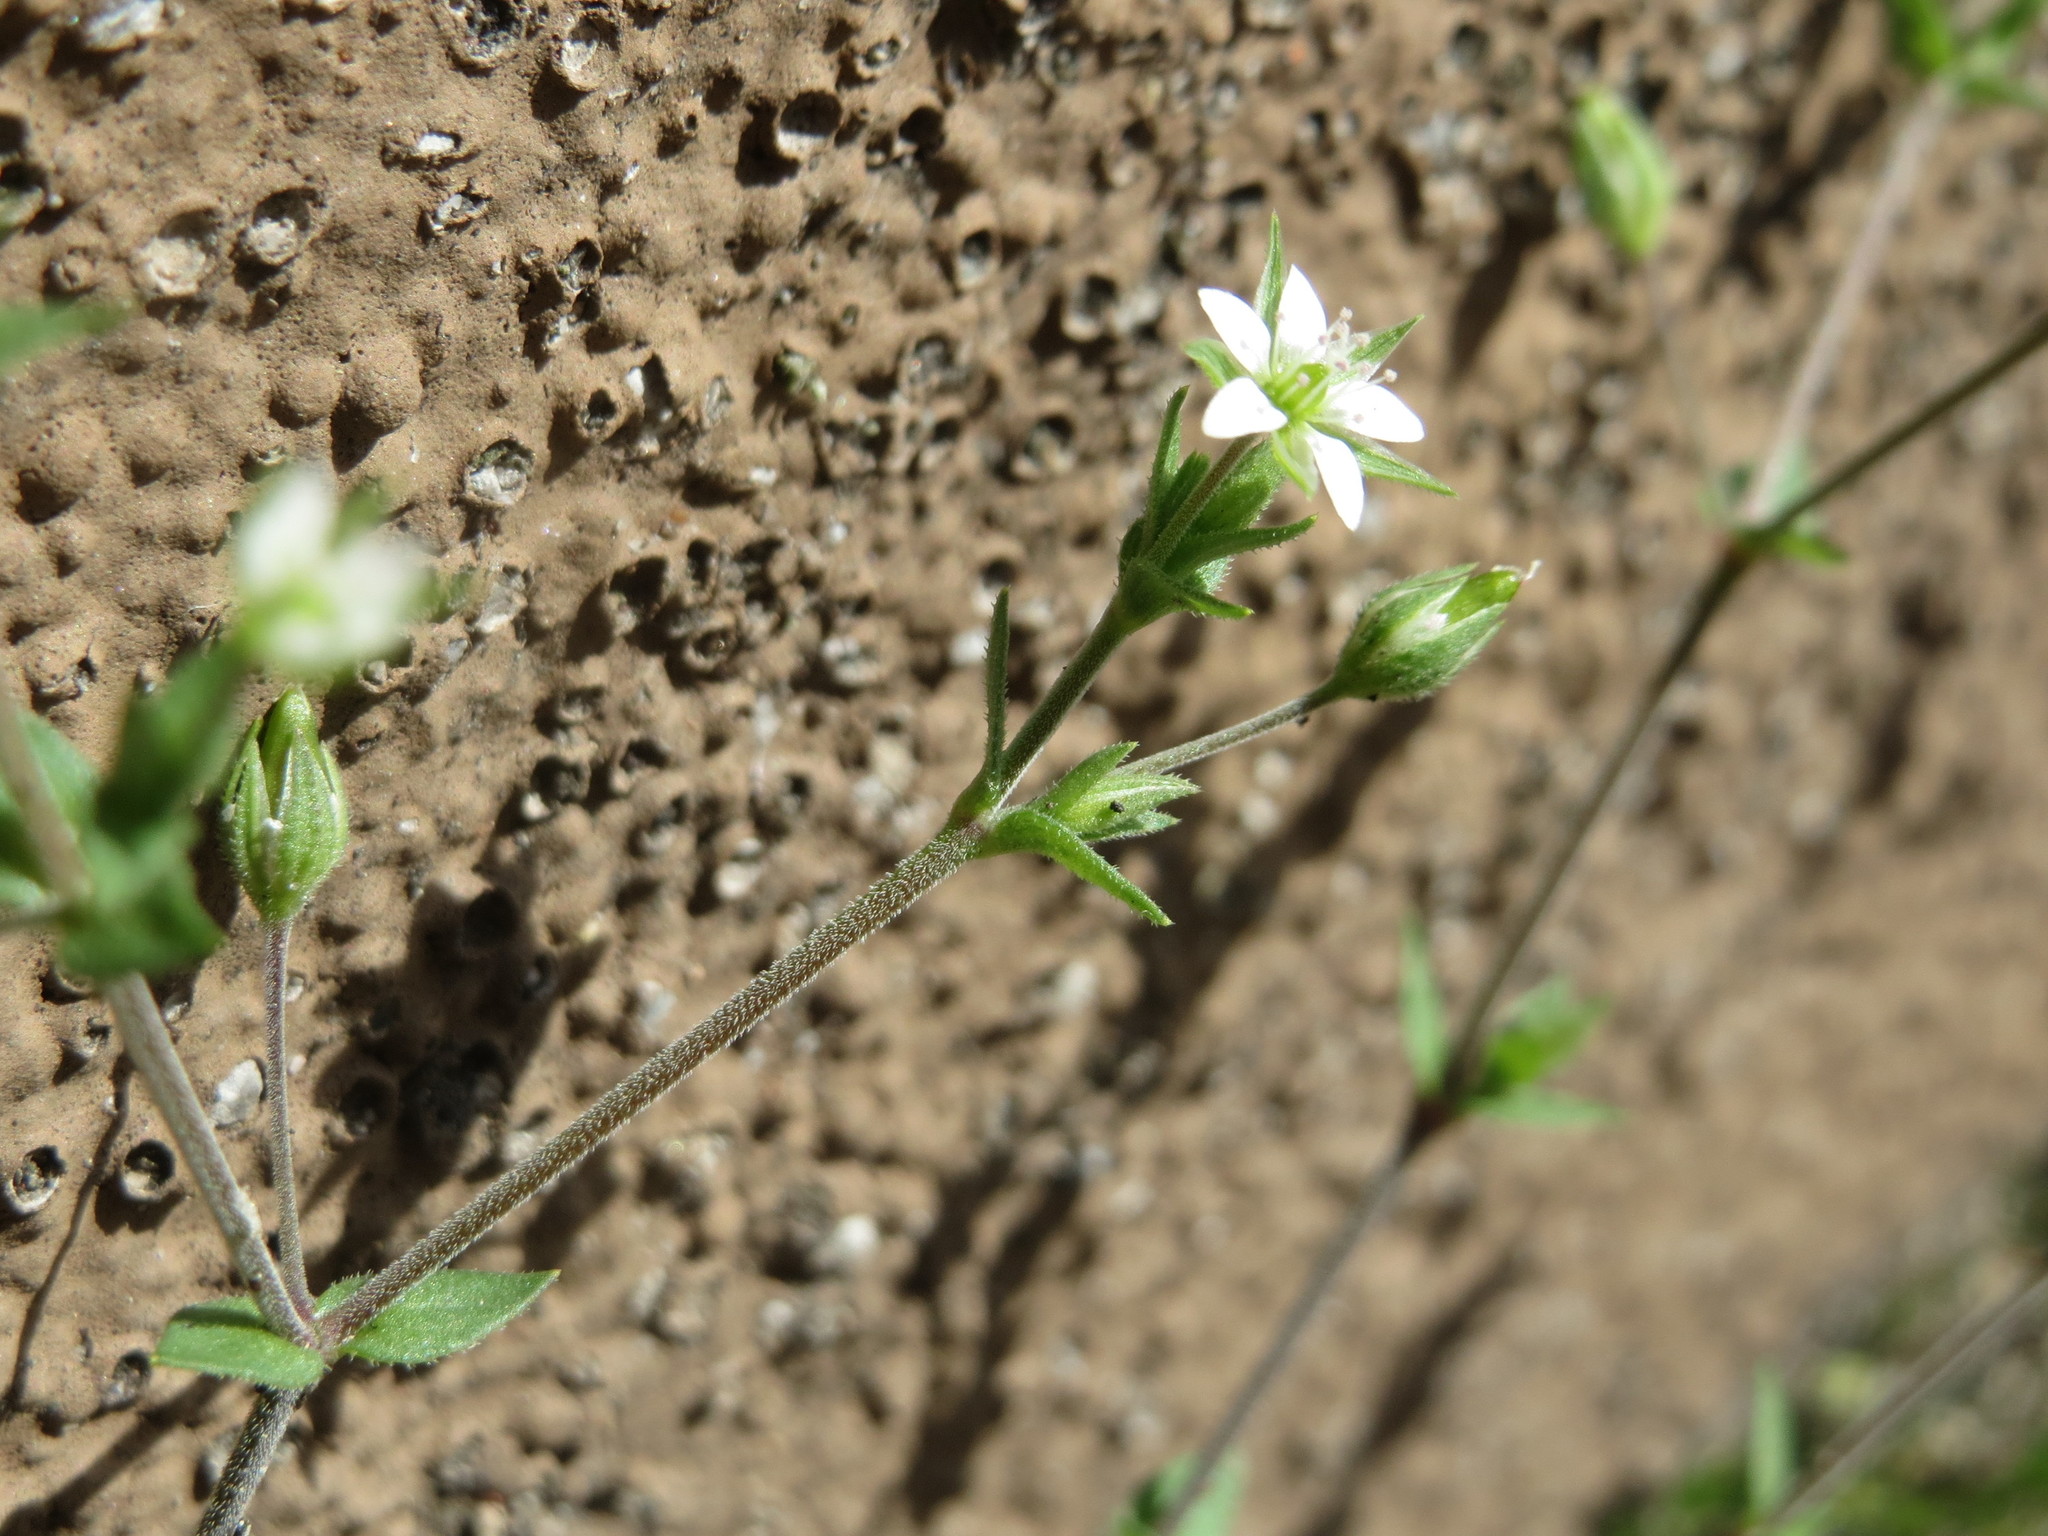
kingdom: Plantae
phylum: Tracheophyta
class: Magnoliopsida
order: Caryophyllales
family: Caryophyllaceae
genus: Arenaria
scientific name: Arenaria serpyllifolia
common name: Thyme-leaved sandwort
